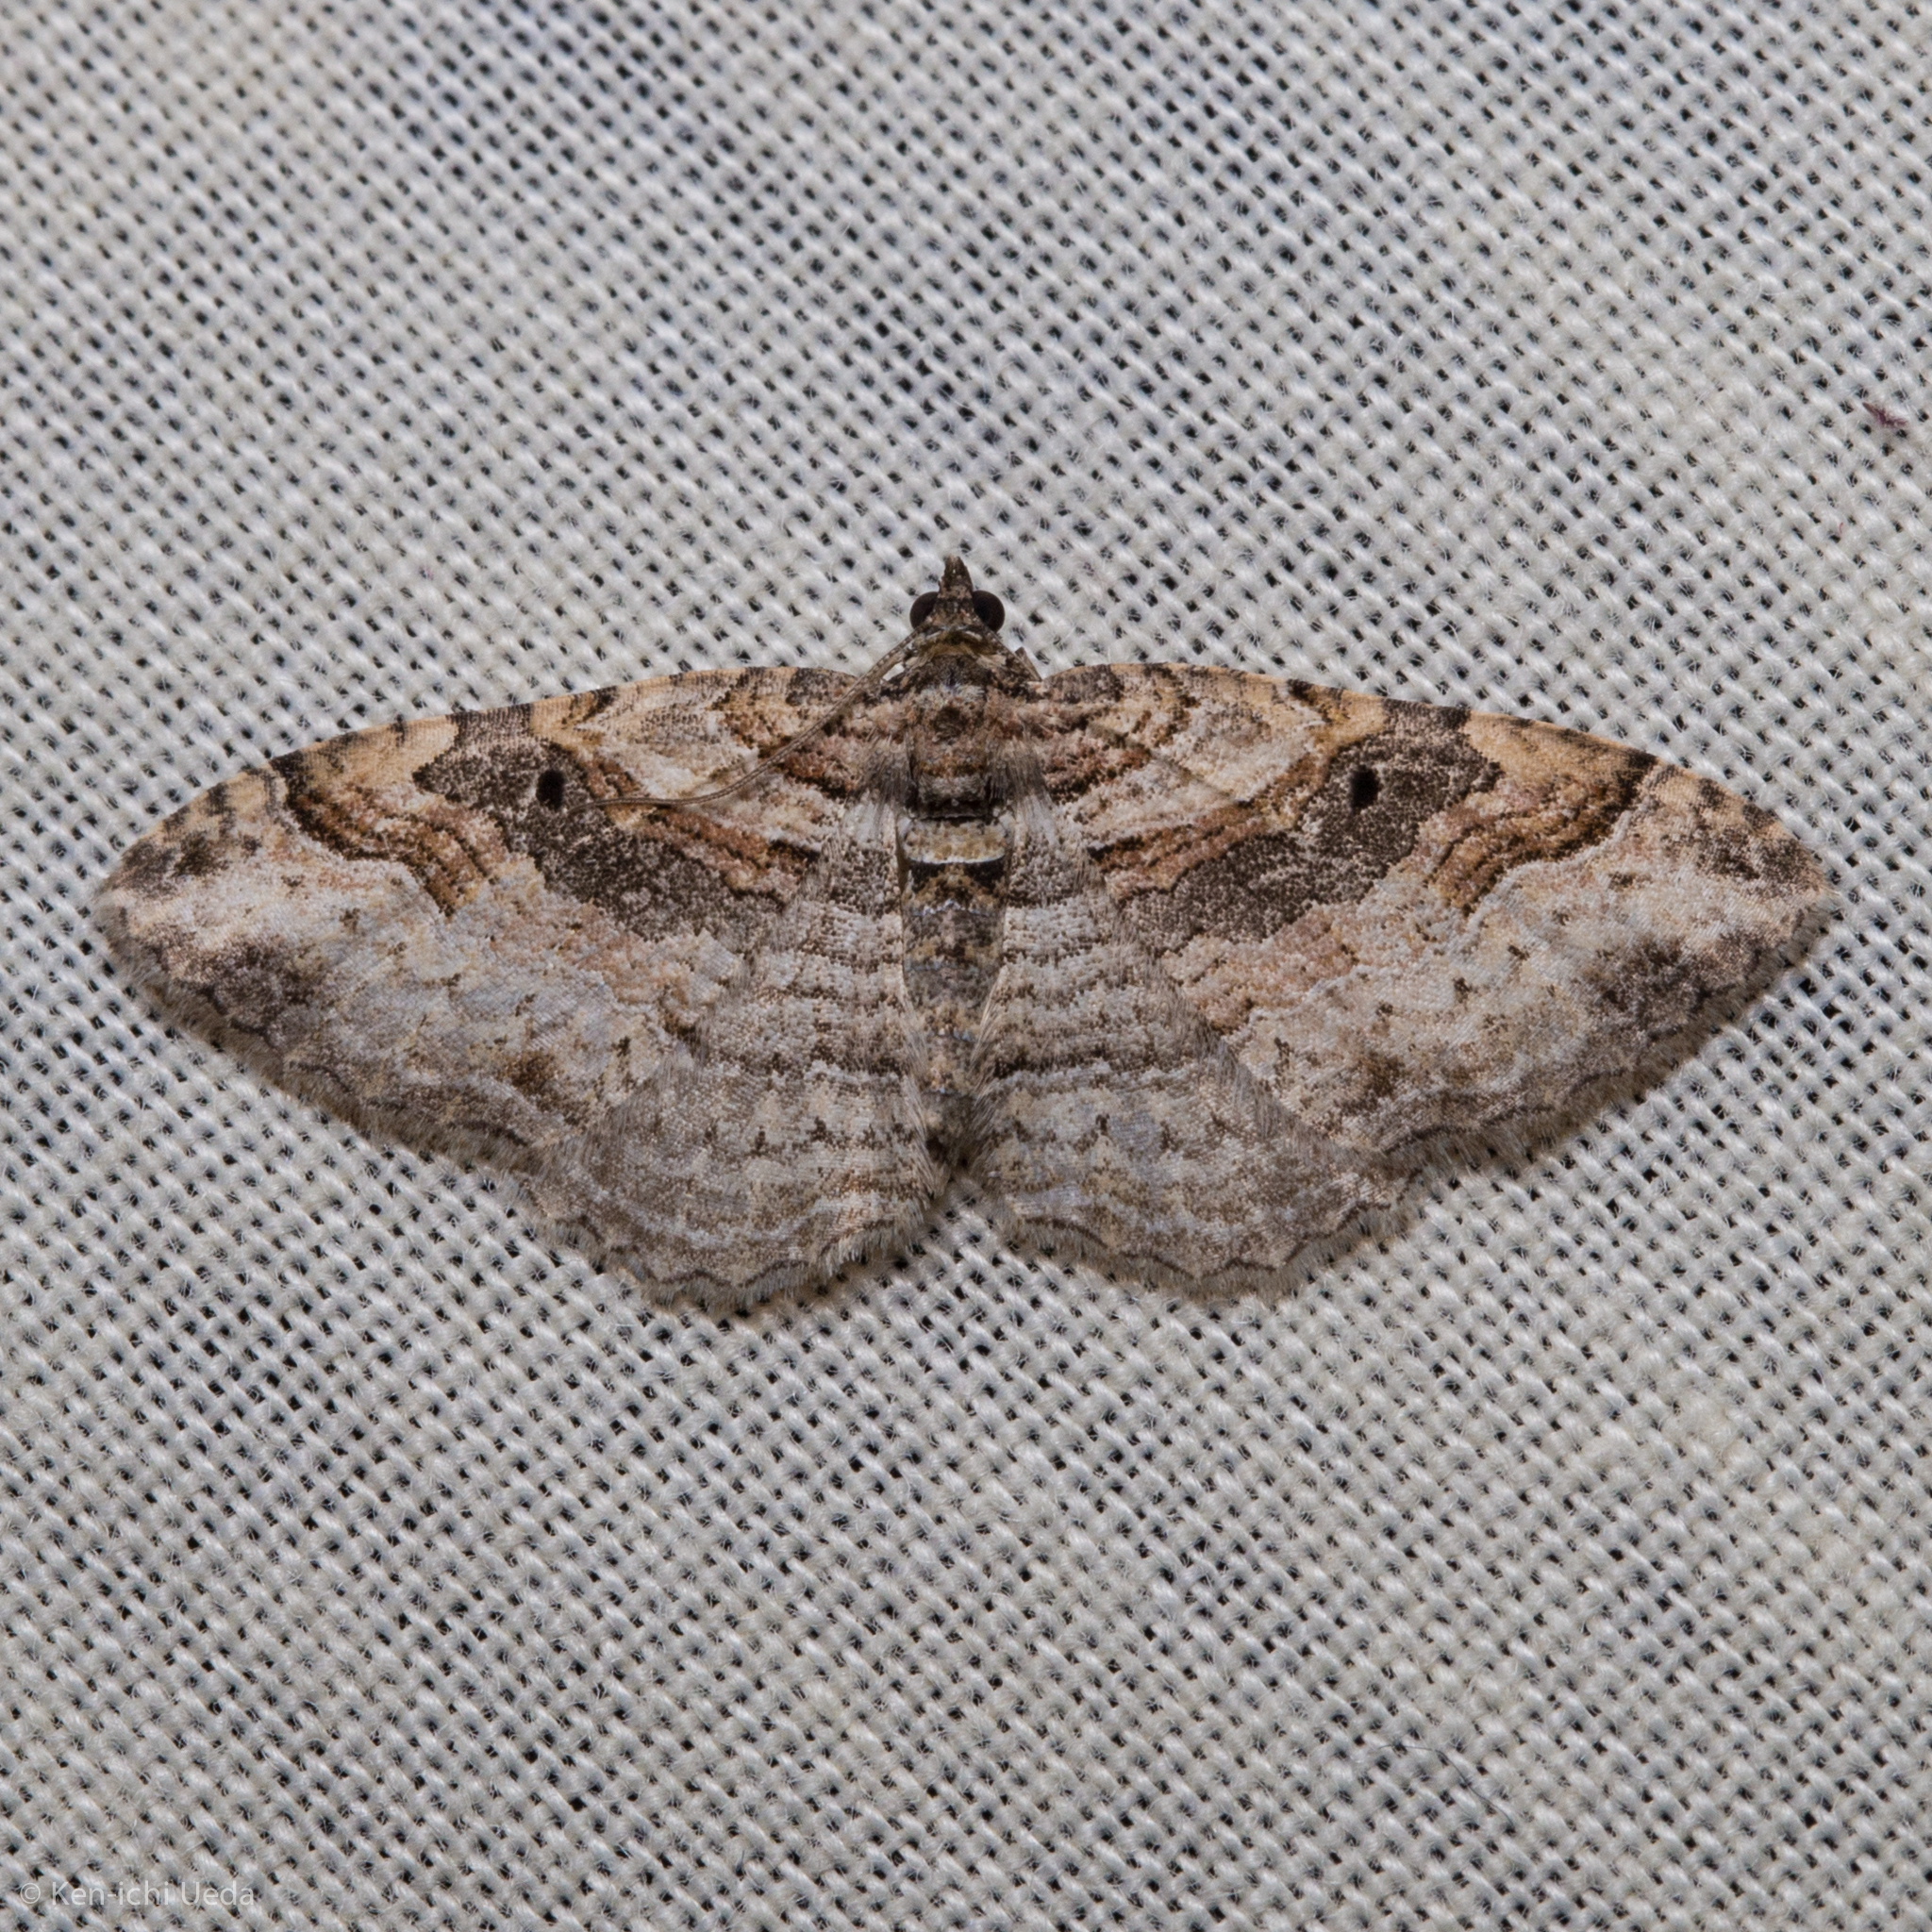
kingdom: Animalia
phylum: Arthropoda
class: Insecta
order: Lepidoptera
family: Geometridae
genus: Costaconvexa
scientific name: Costaconvexa centrostrigaria
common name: Bent-line carpet
